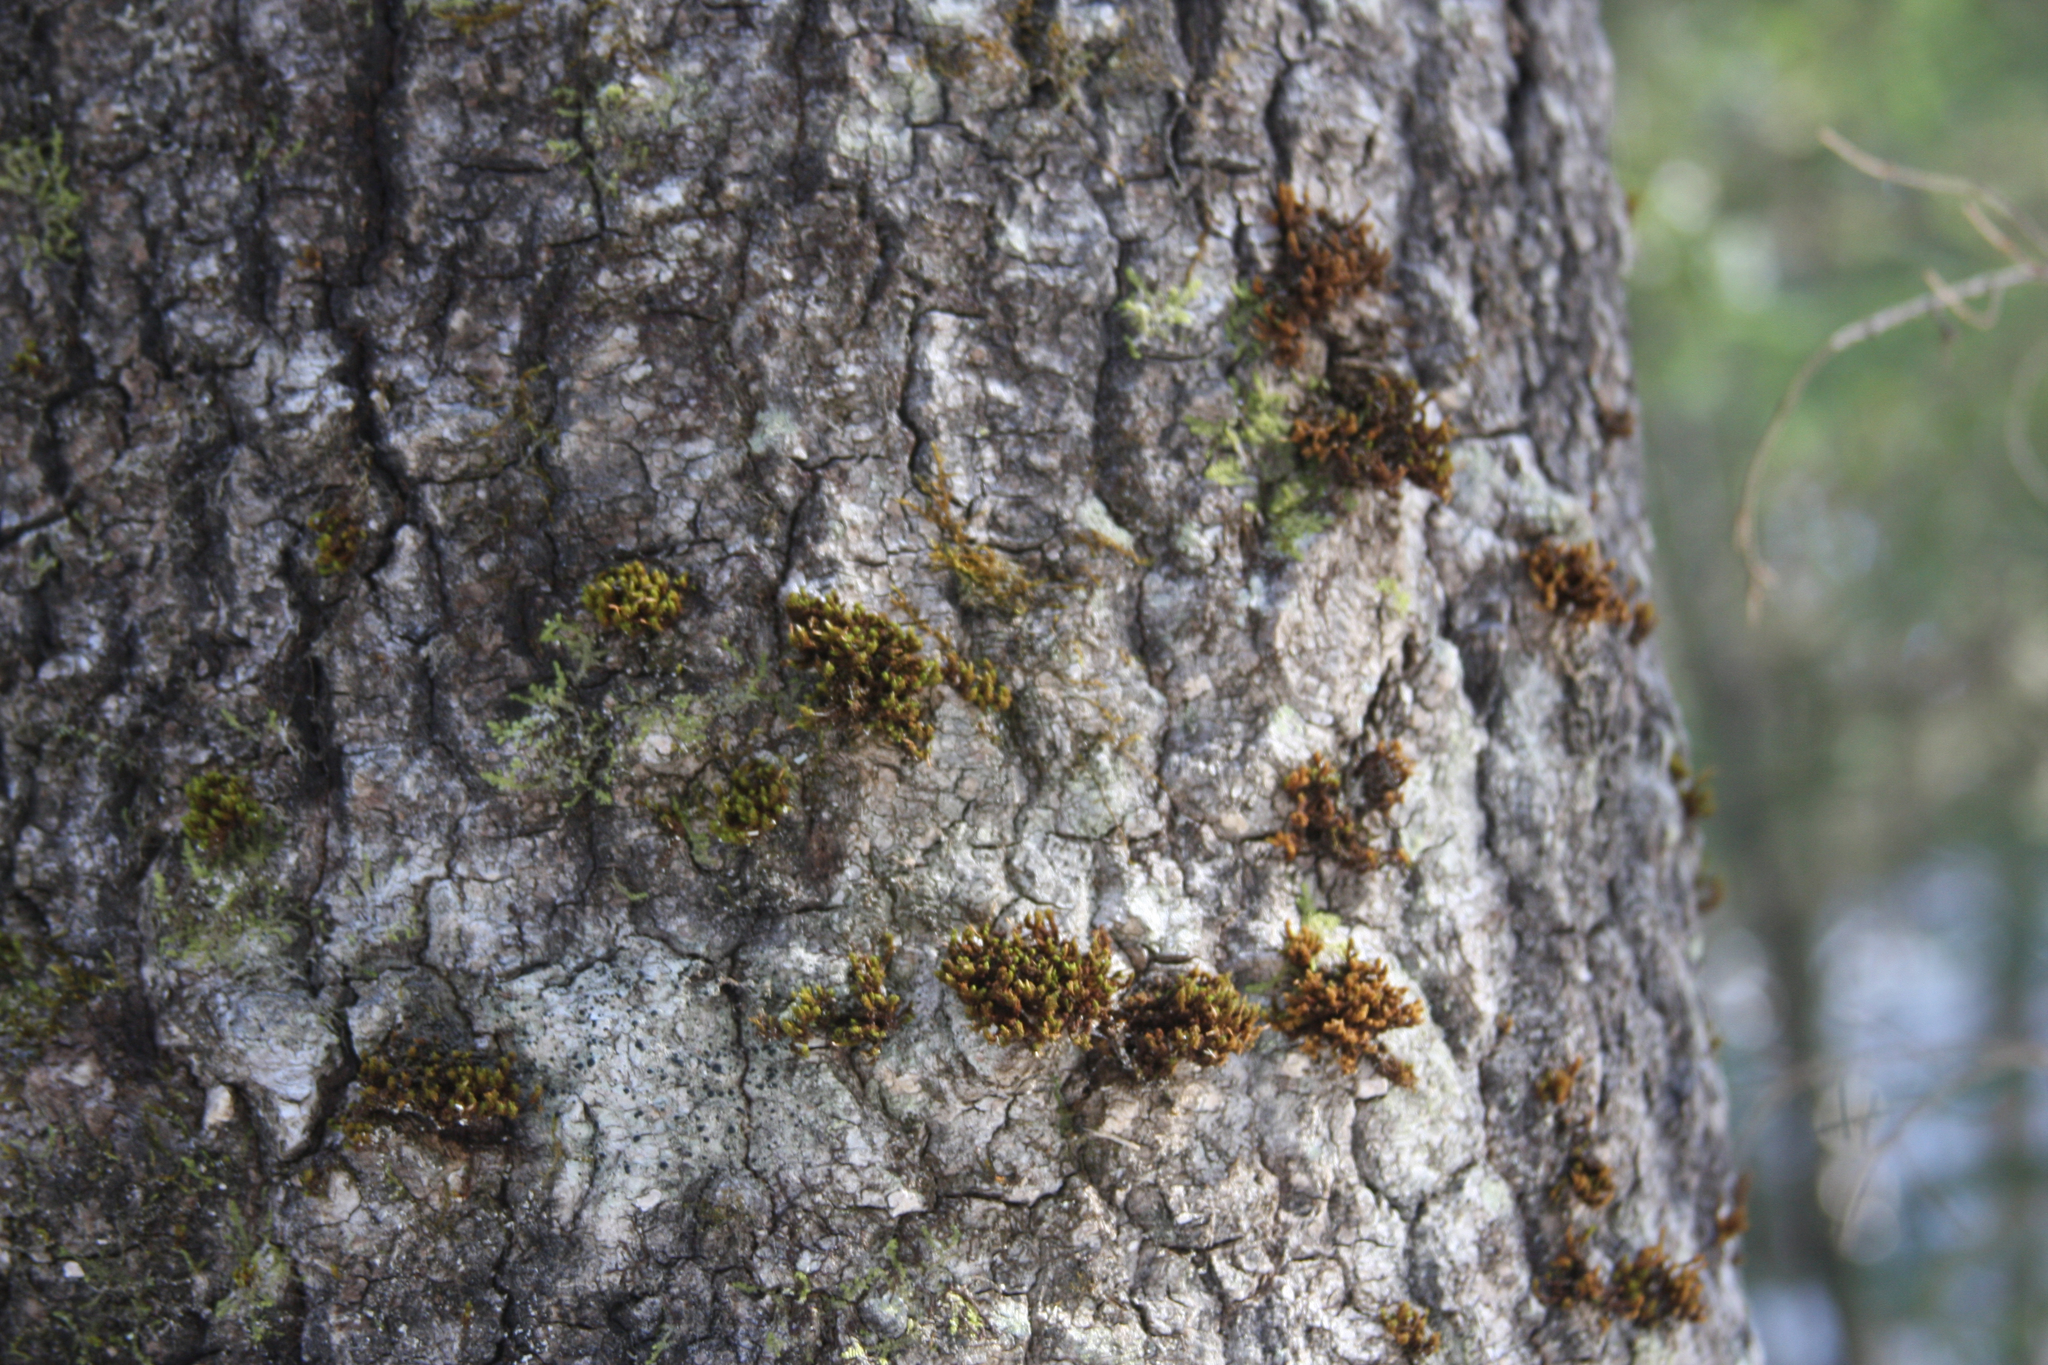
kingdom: Plantae
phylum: Bryophyta
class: Bryopsida
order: Orthotrichales
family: Orthotrichaceae
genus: Ulota
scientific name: Ulota crispa
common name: Crisped pincushion moss
